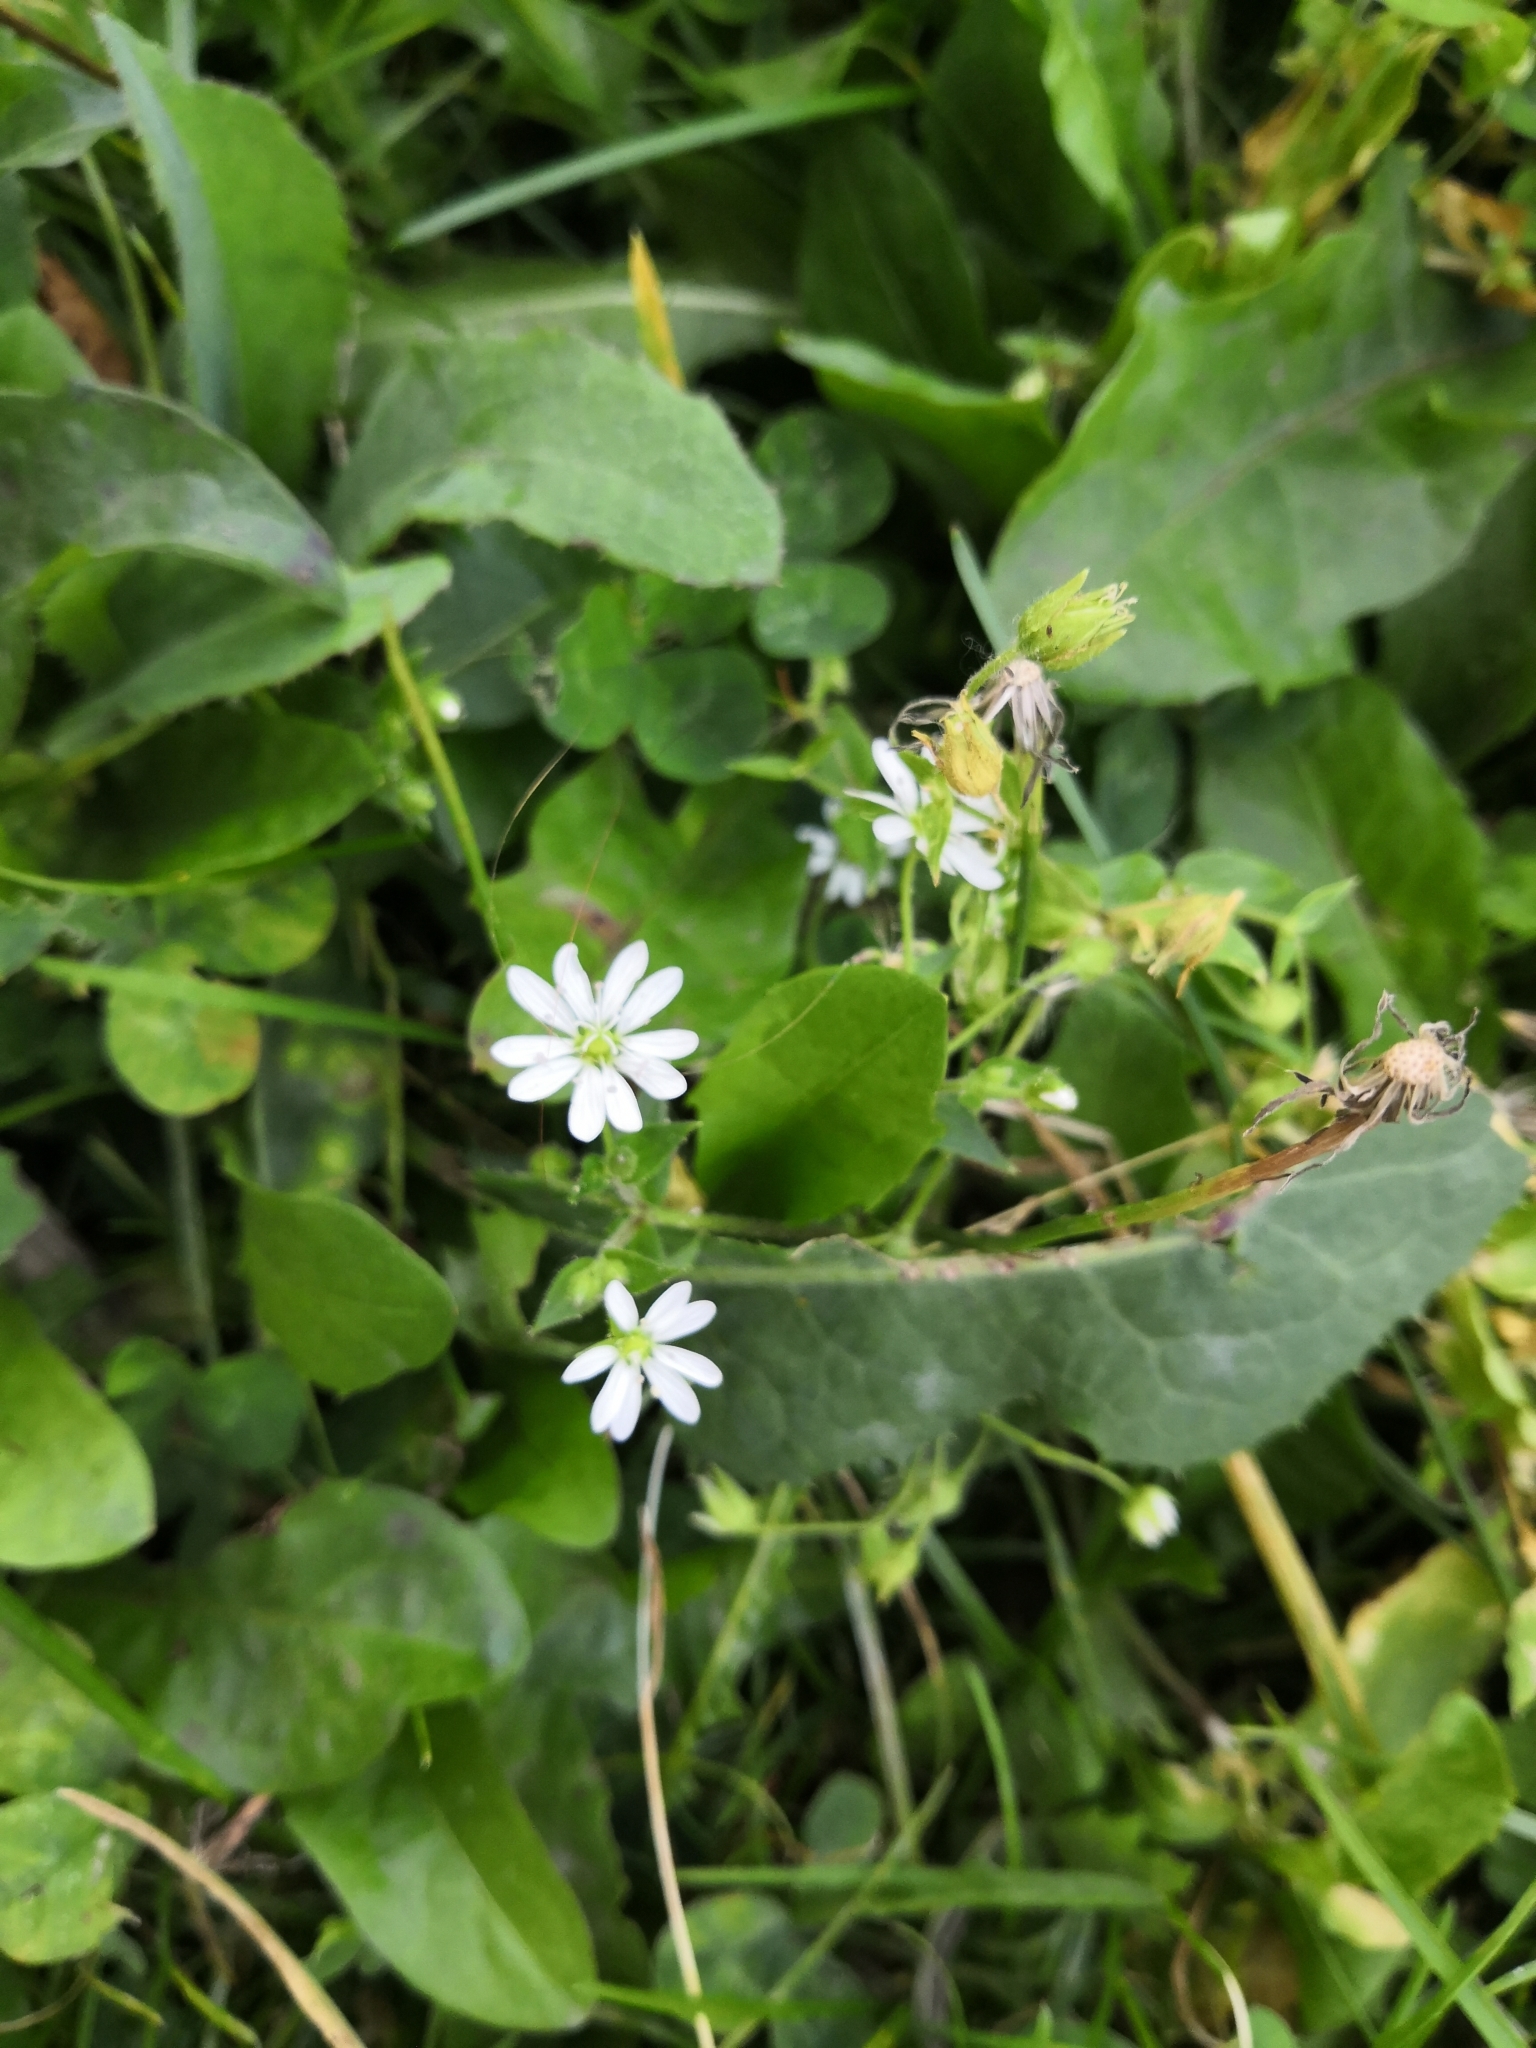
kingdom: Plantae
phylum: Tracheophyta
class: Magnoliopsida
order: Caryophyllales
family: Caryophyllaceae
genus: Stellaria
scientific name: Stellaria aquatica
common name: Water chickweed
